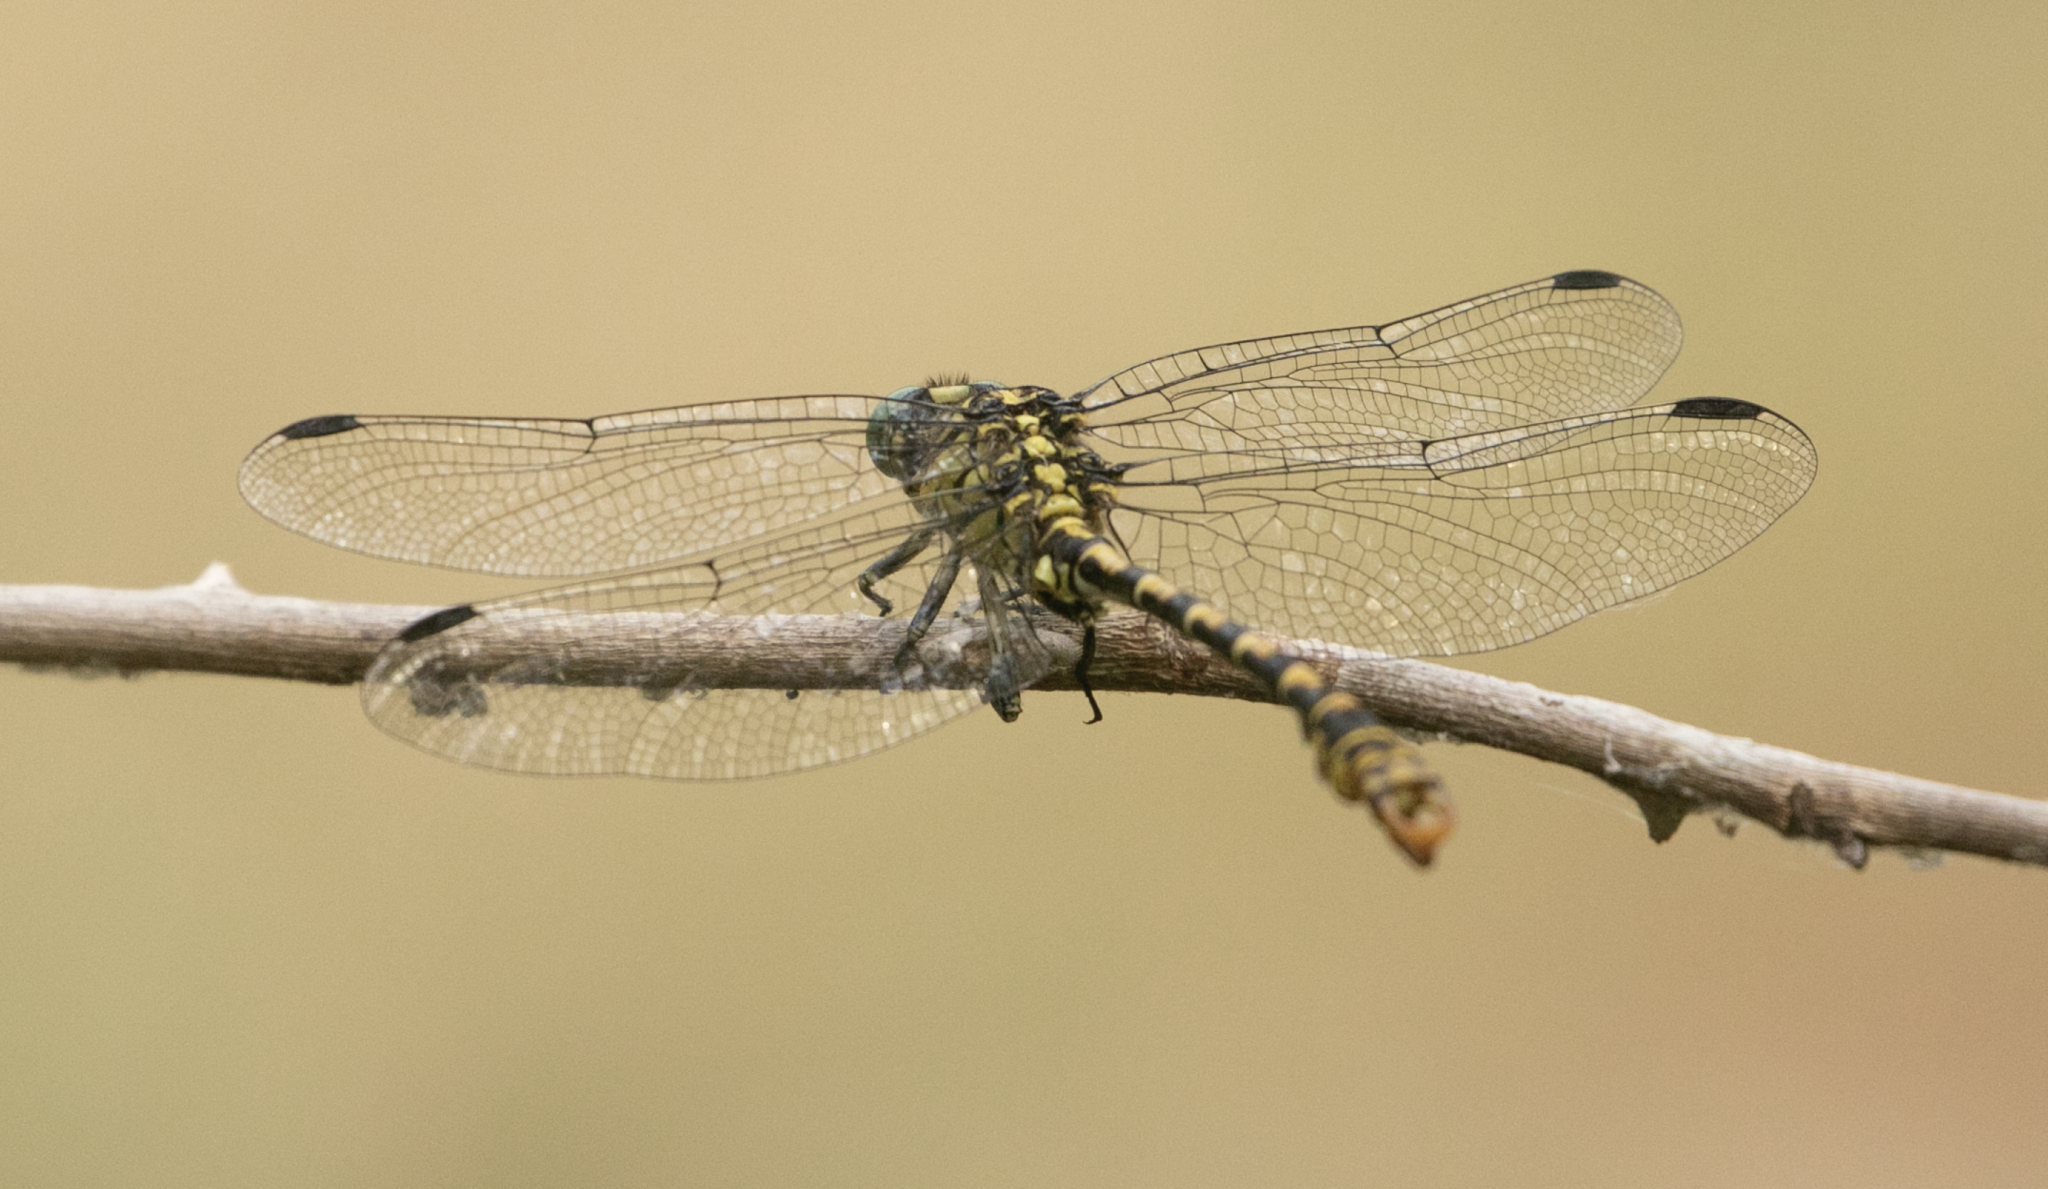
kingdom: Animalia
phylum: Arthropoda
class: Insecta
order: Odonata
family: Gomphidae
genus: Onychogomphus
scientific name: Onychogomphus forcipatus
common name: Small pincertail
